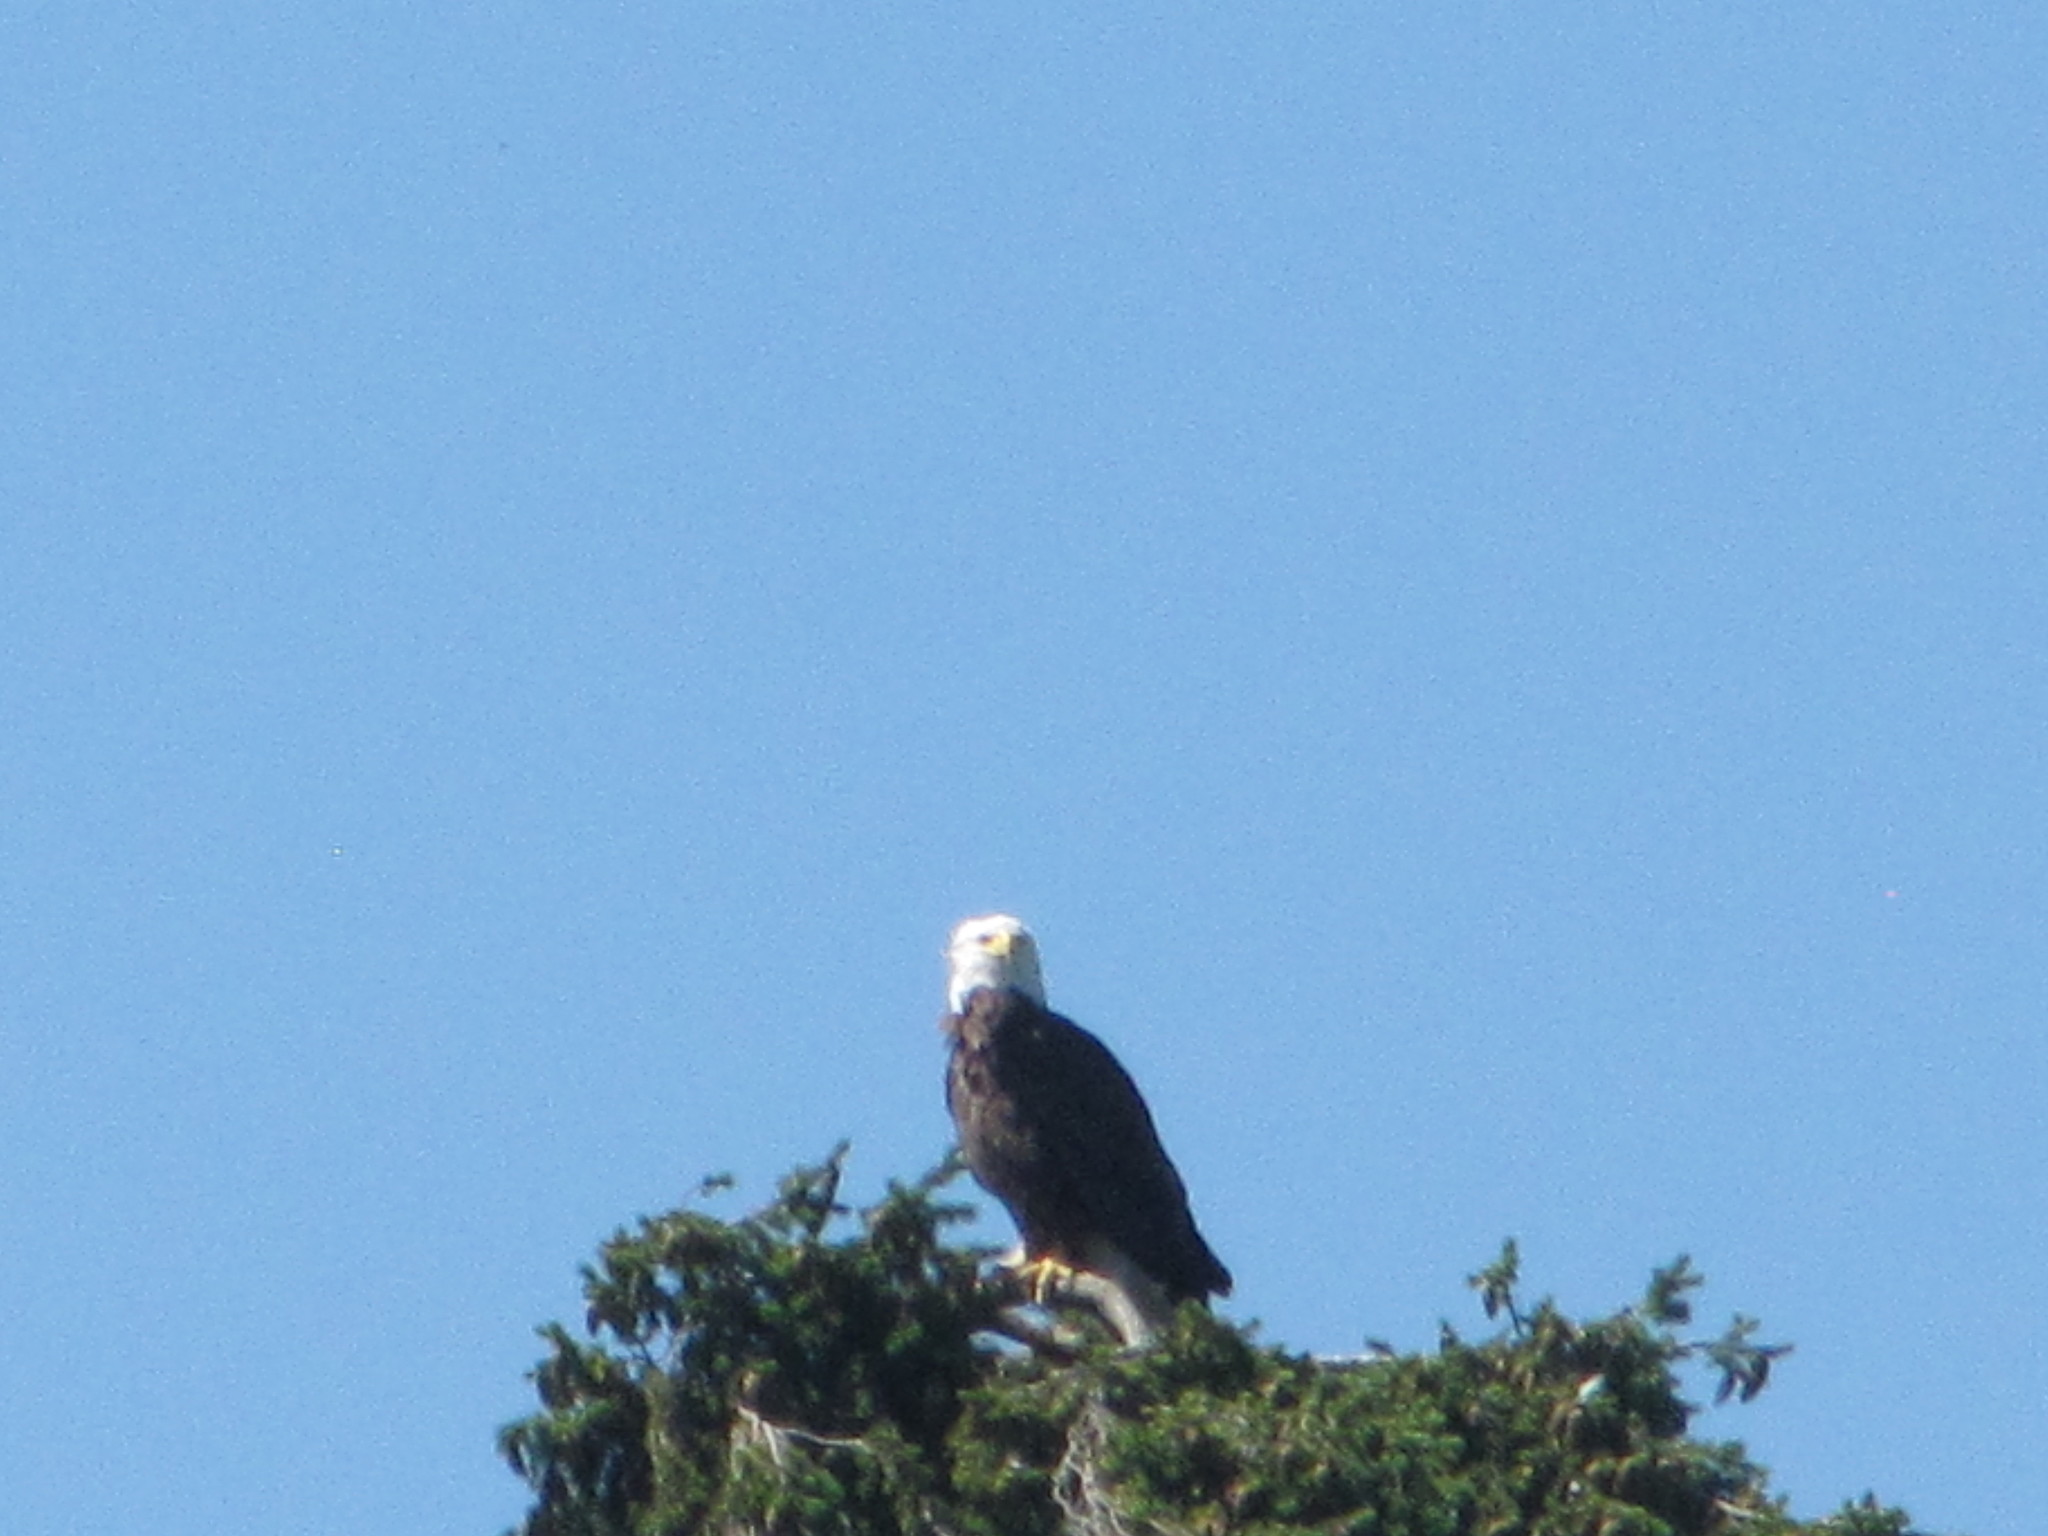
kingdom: Animalia
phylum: Chordata
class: Aves
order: Accipitriformes
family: Accipitridae
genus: Haliaeetus
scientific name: Haliaeetus leucocephalus
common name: Bald eagle
